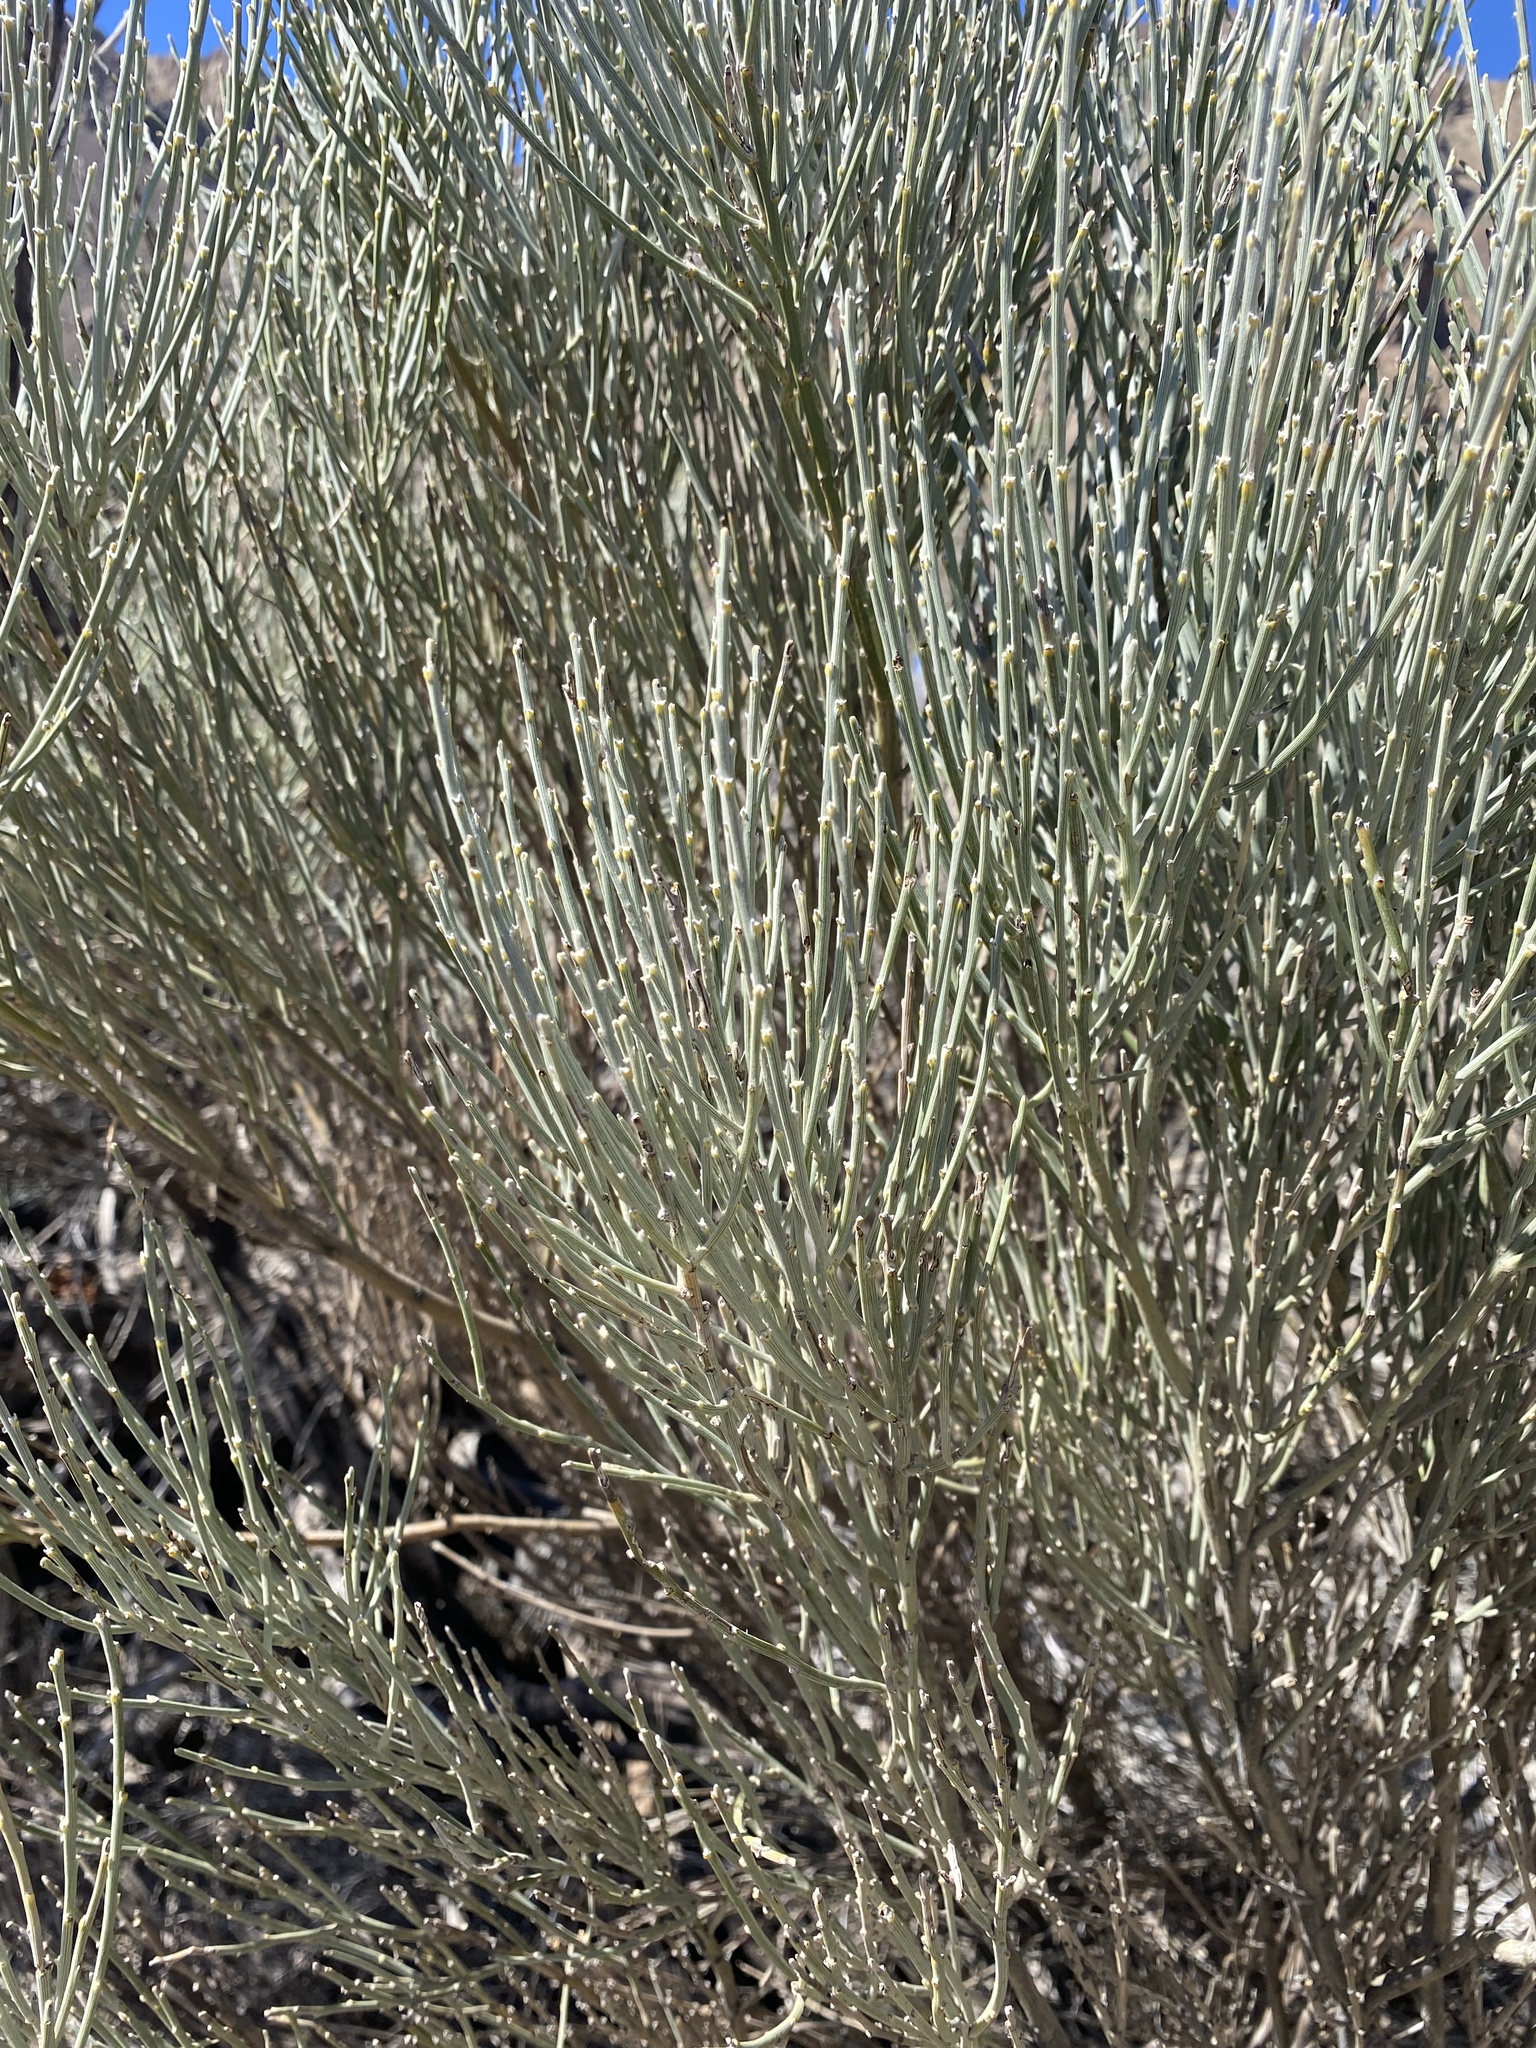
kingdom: Plantae
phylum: Tracheophyta
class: Magnoliopsida
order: Fabales
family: Fabaceae
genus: Cytisus
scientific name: Cytisus supranubius
